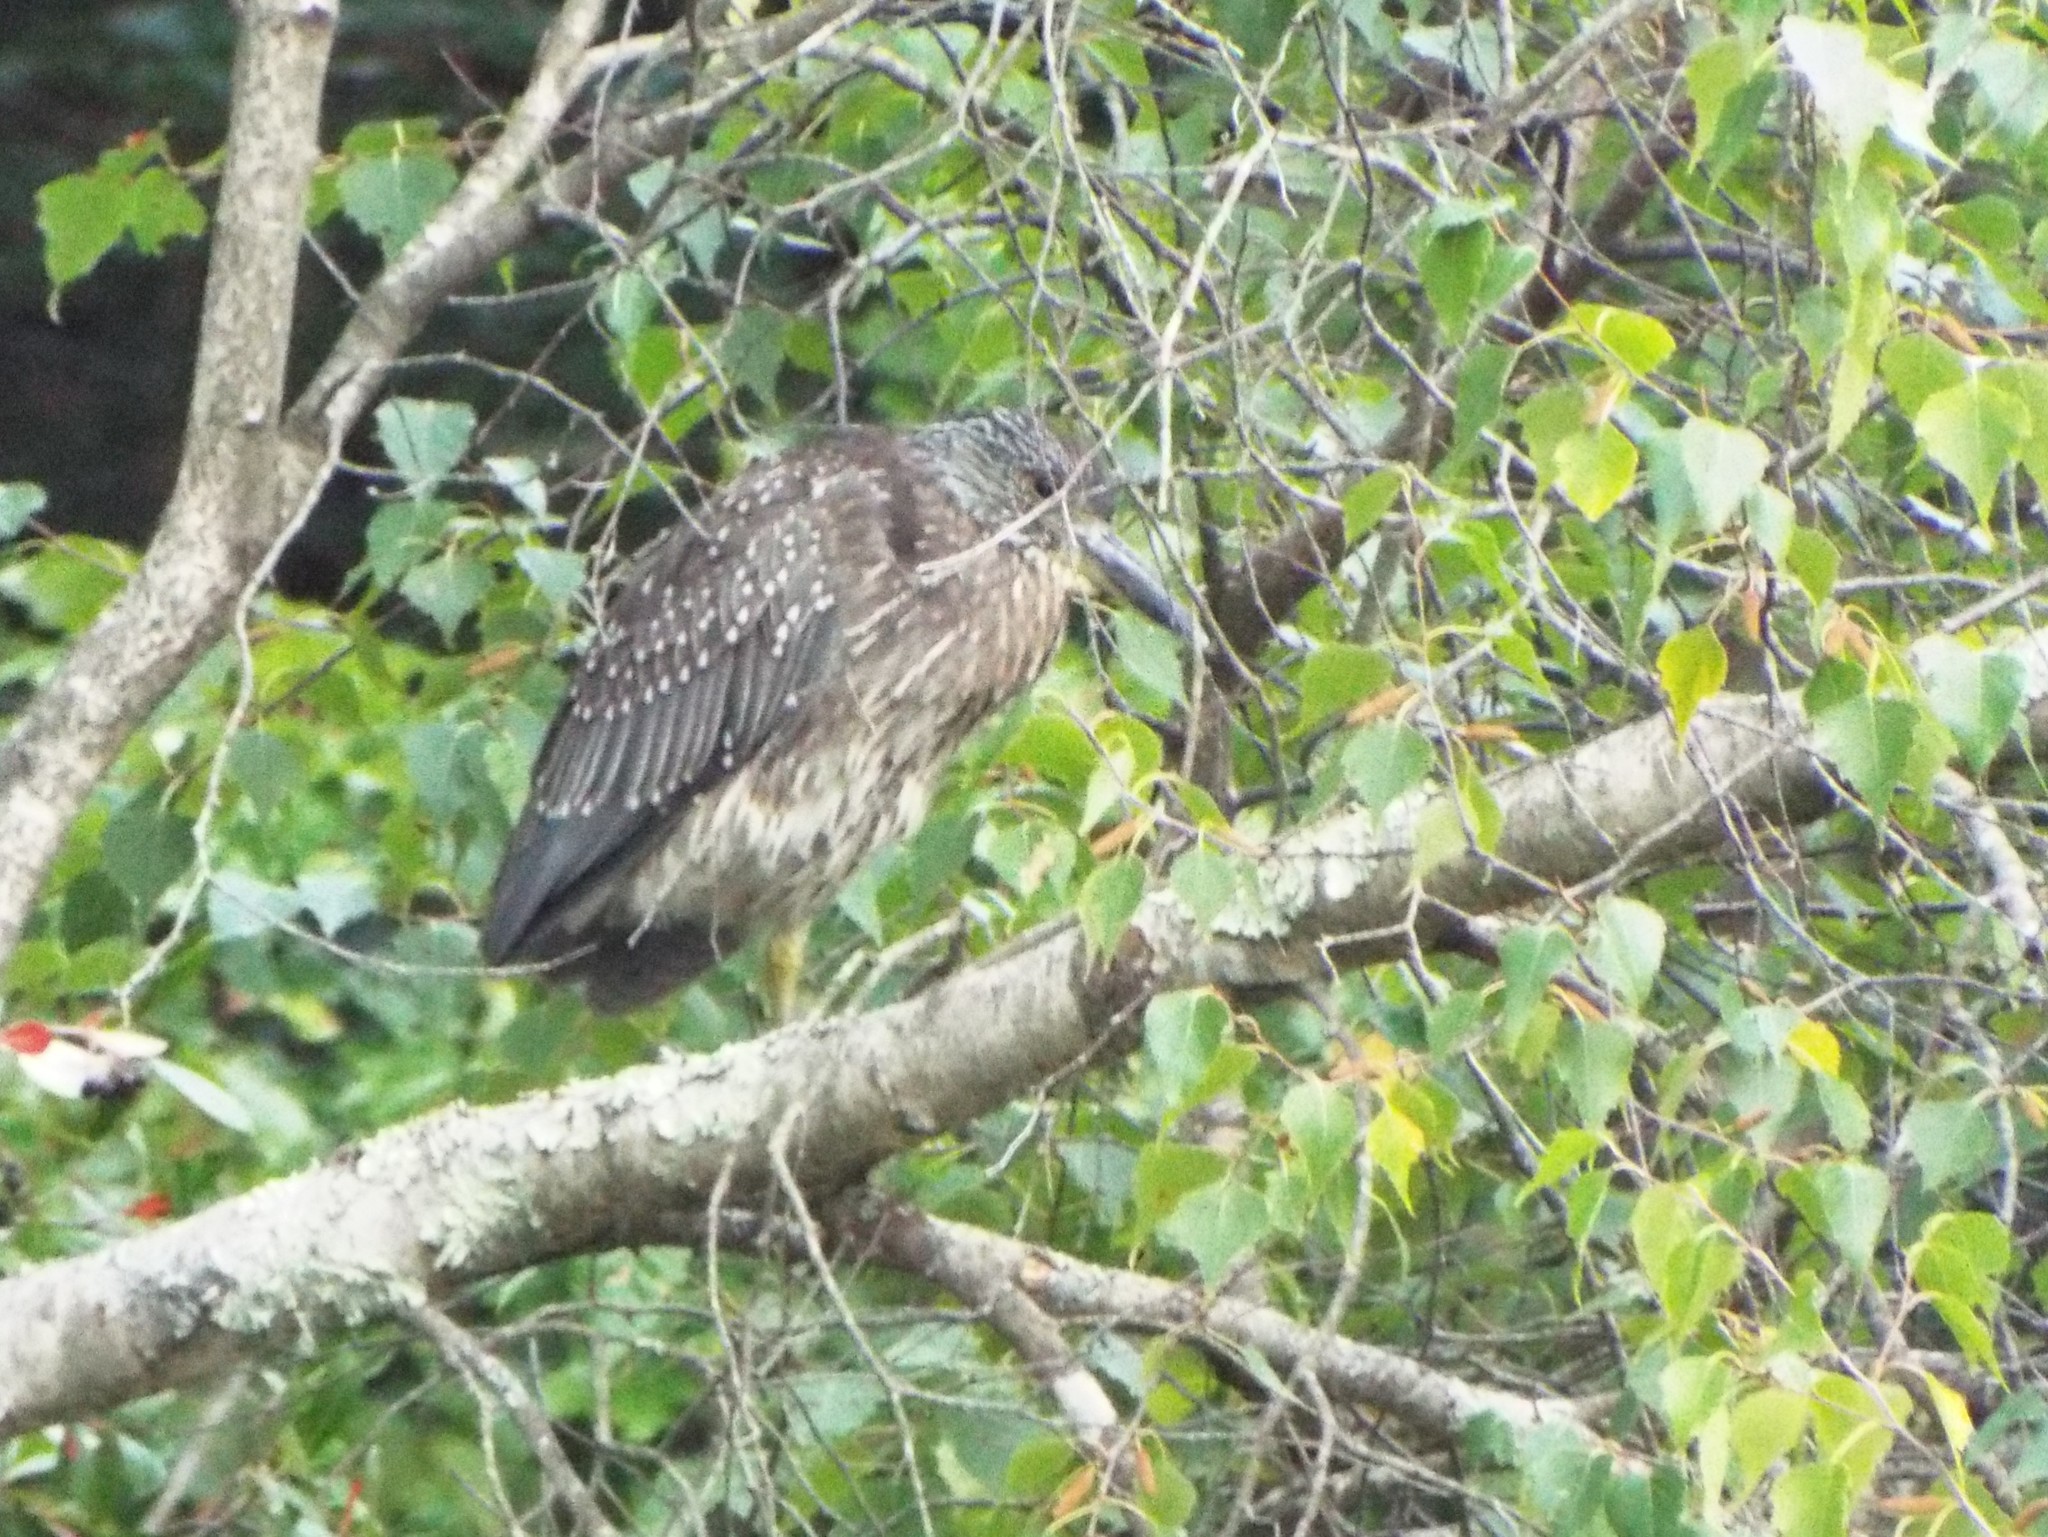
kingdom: Animalia
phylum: Chordata
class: Aves
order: Pelecaniformes
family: Ardeidae
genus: Nyctanassa
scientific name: Nyctanassa violacea
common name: Yellow-crowned night heron
